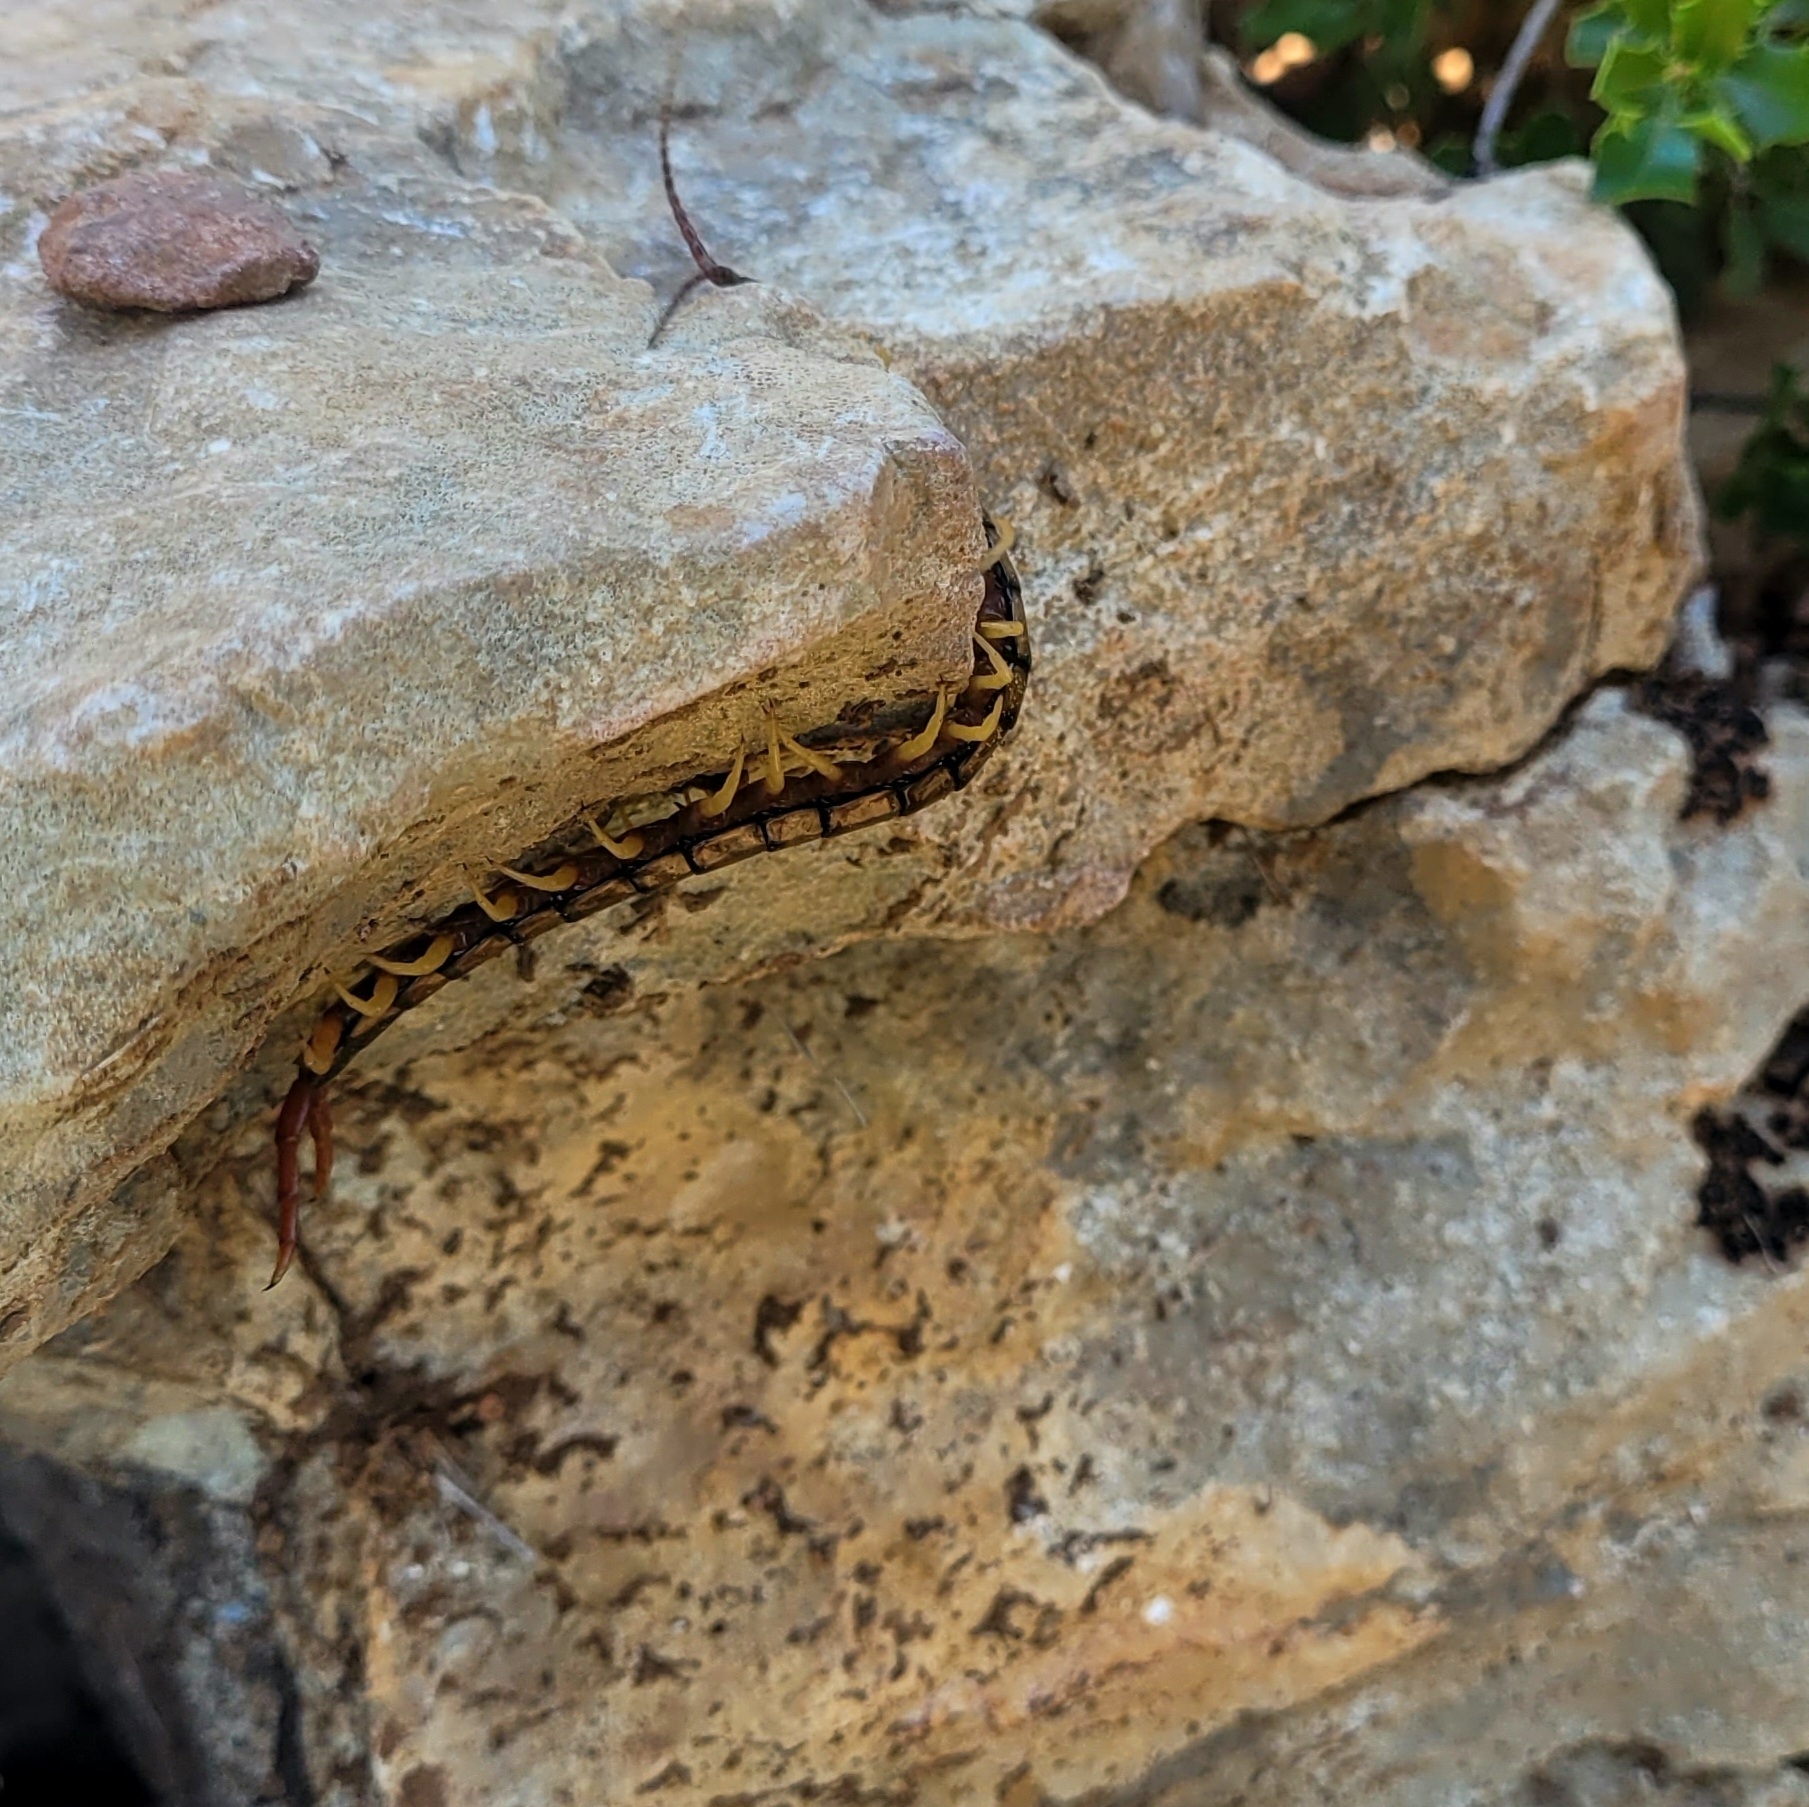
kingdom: Animalia
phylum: Arthropoda
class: Chilopoda
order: Scolopendromorpha
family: Scolopendridae
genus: Scolopendra
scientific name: Scolopendra cingulata
